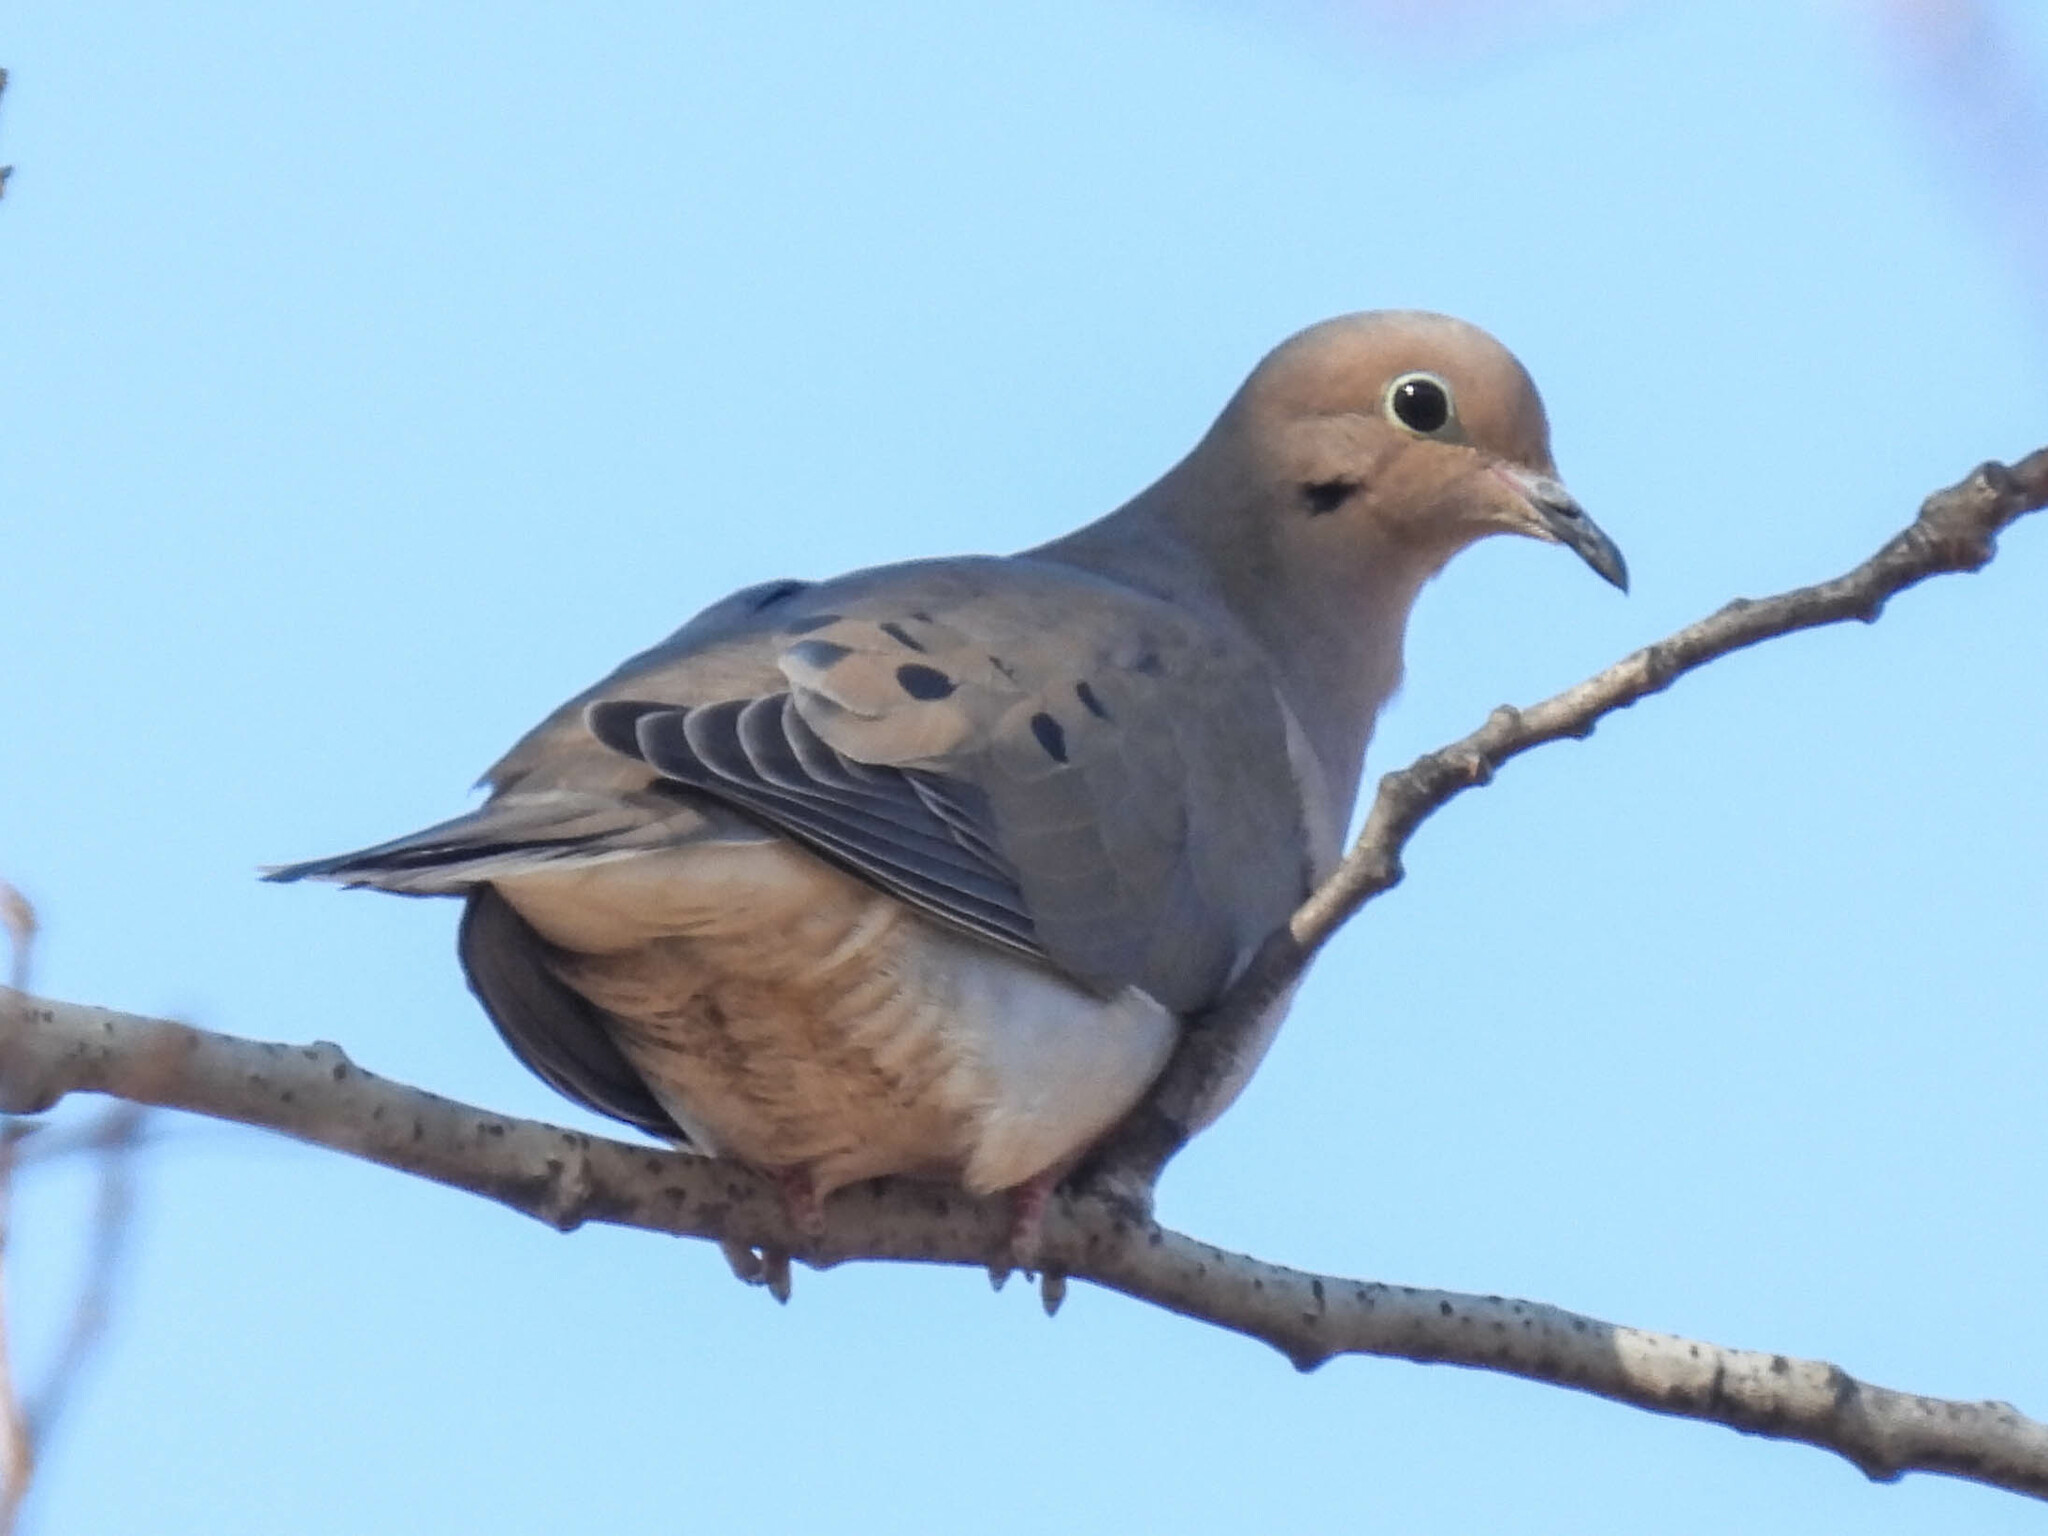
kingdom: Animalia
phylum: Chordata
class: Aves
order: Columbiformes
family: Columbidae
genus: Zenaida
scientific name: Zenaida macroura
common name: Mourning dove
